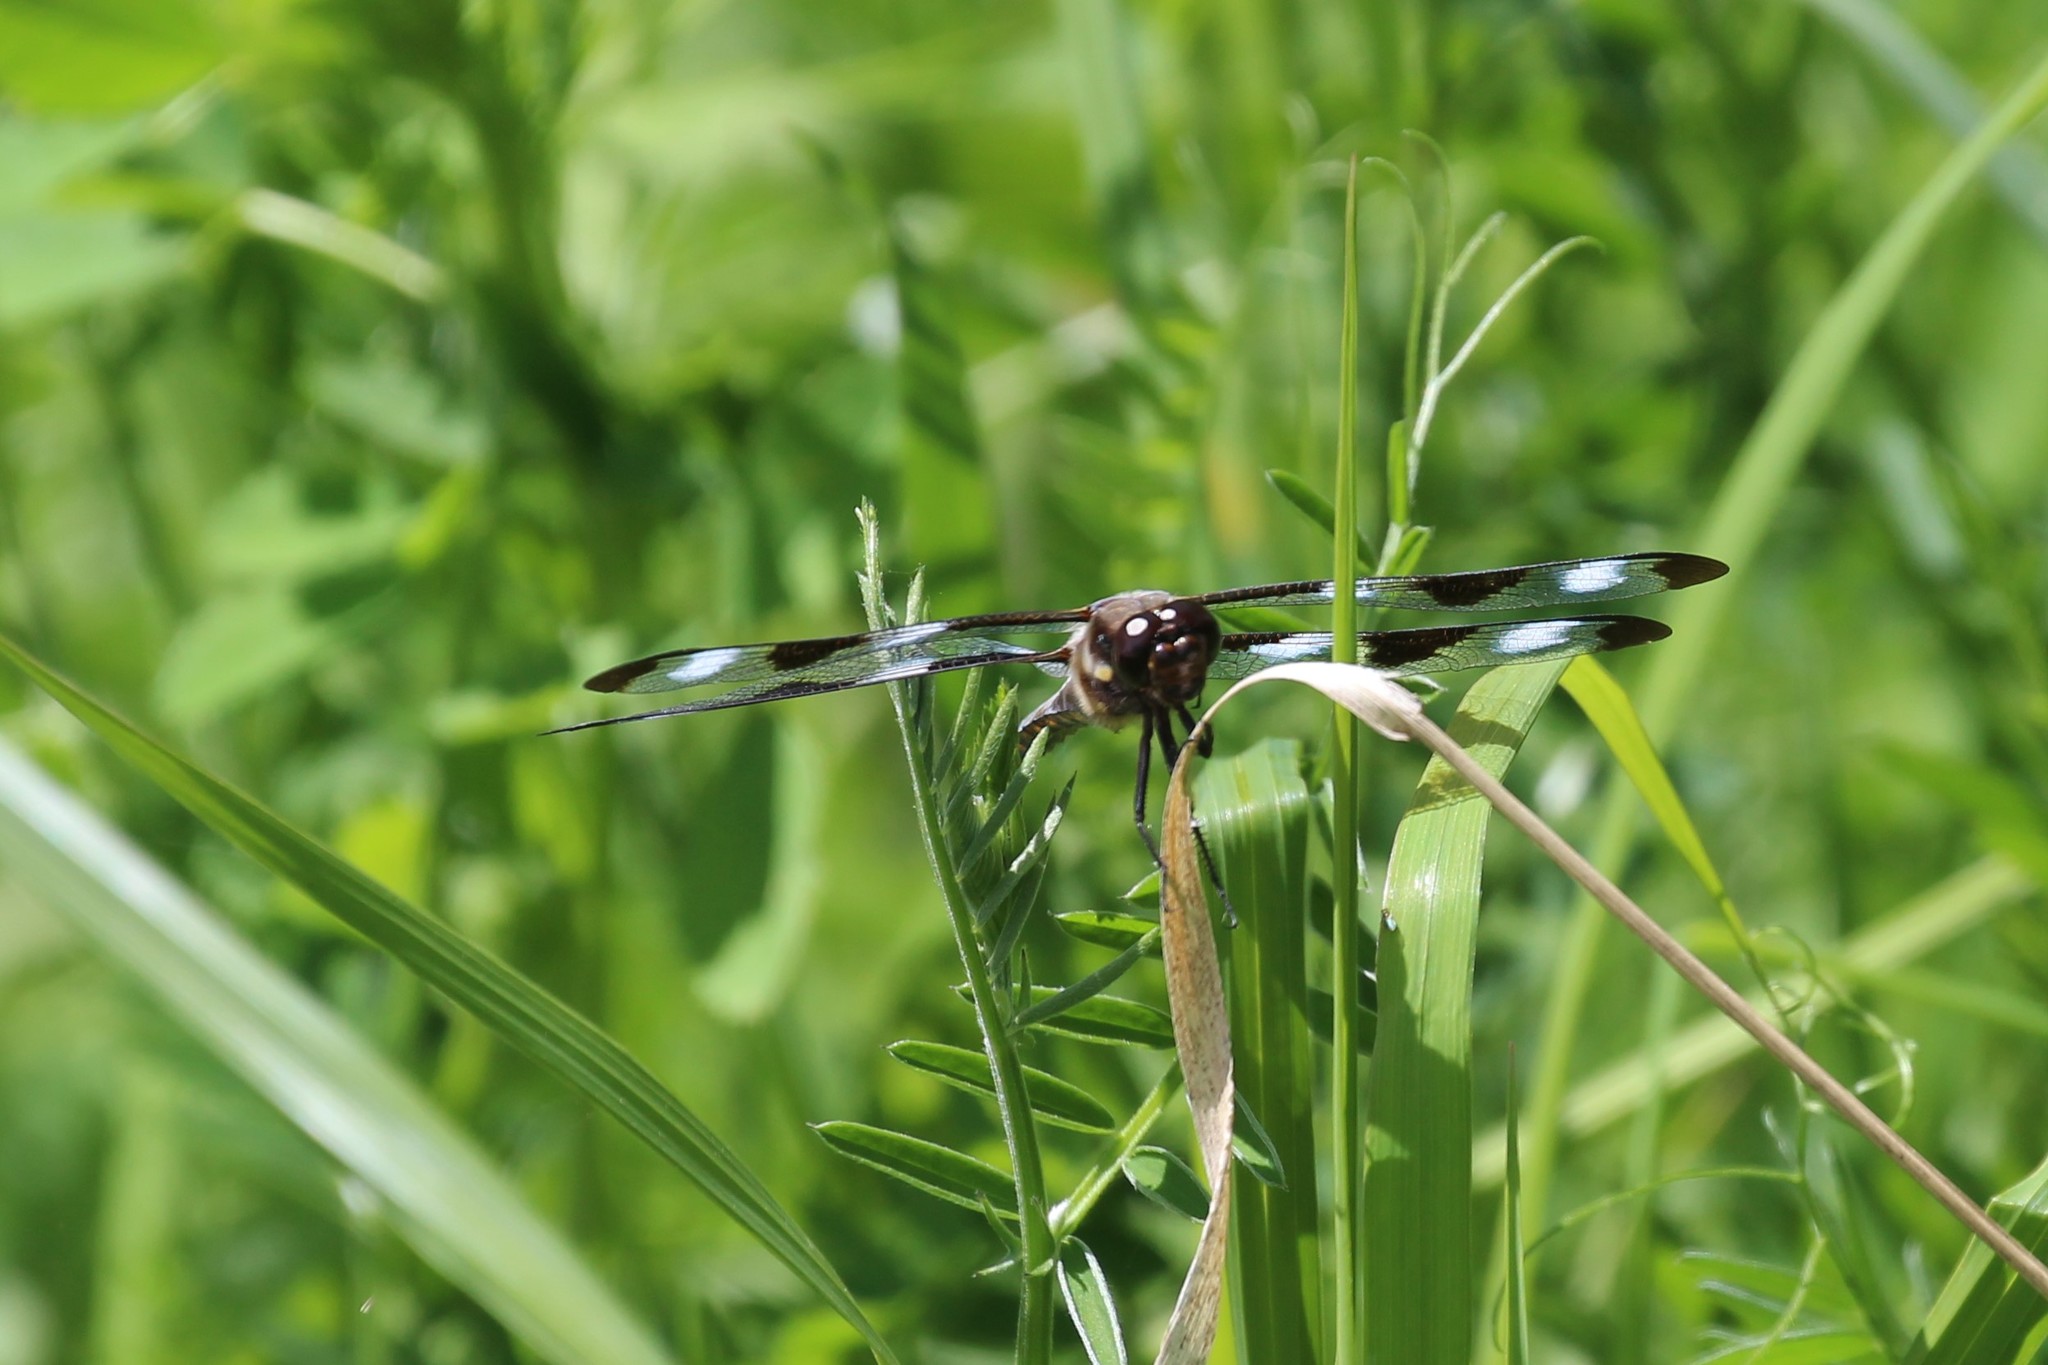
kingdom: Animalia
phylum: Arthropoda
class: Insecta
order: Odonata
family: Libellulidae
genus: Libellula
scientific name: Libellula pulchella
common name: Twelve-spotted skimmer
